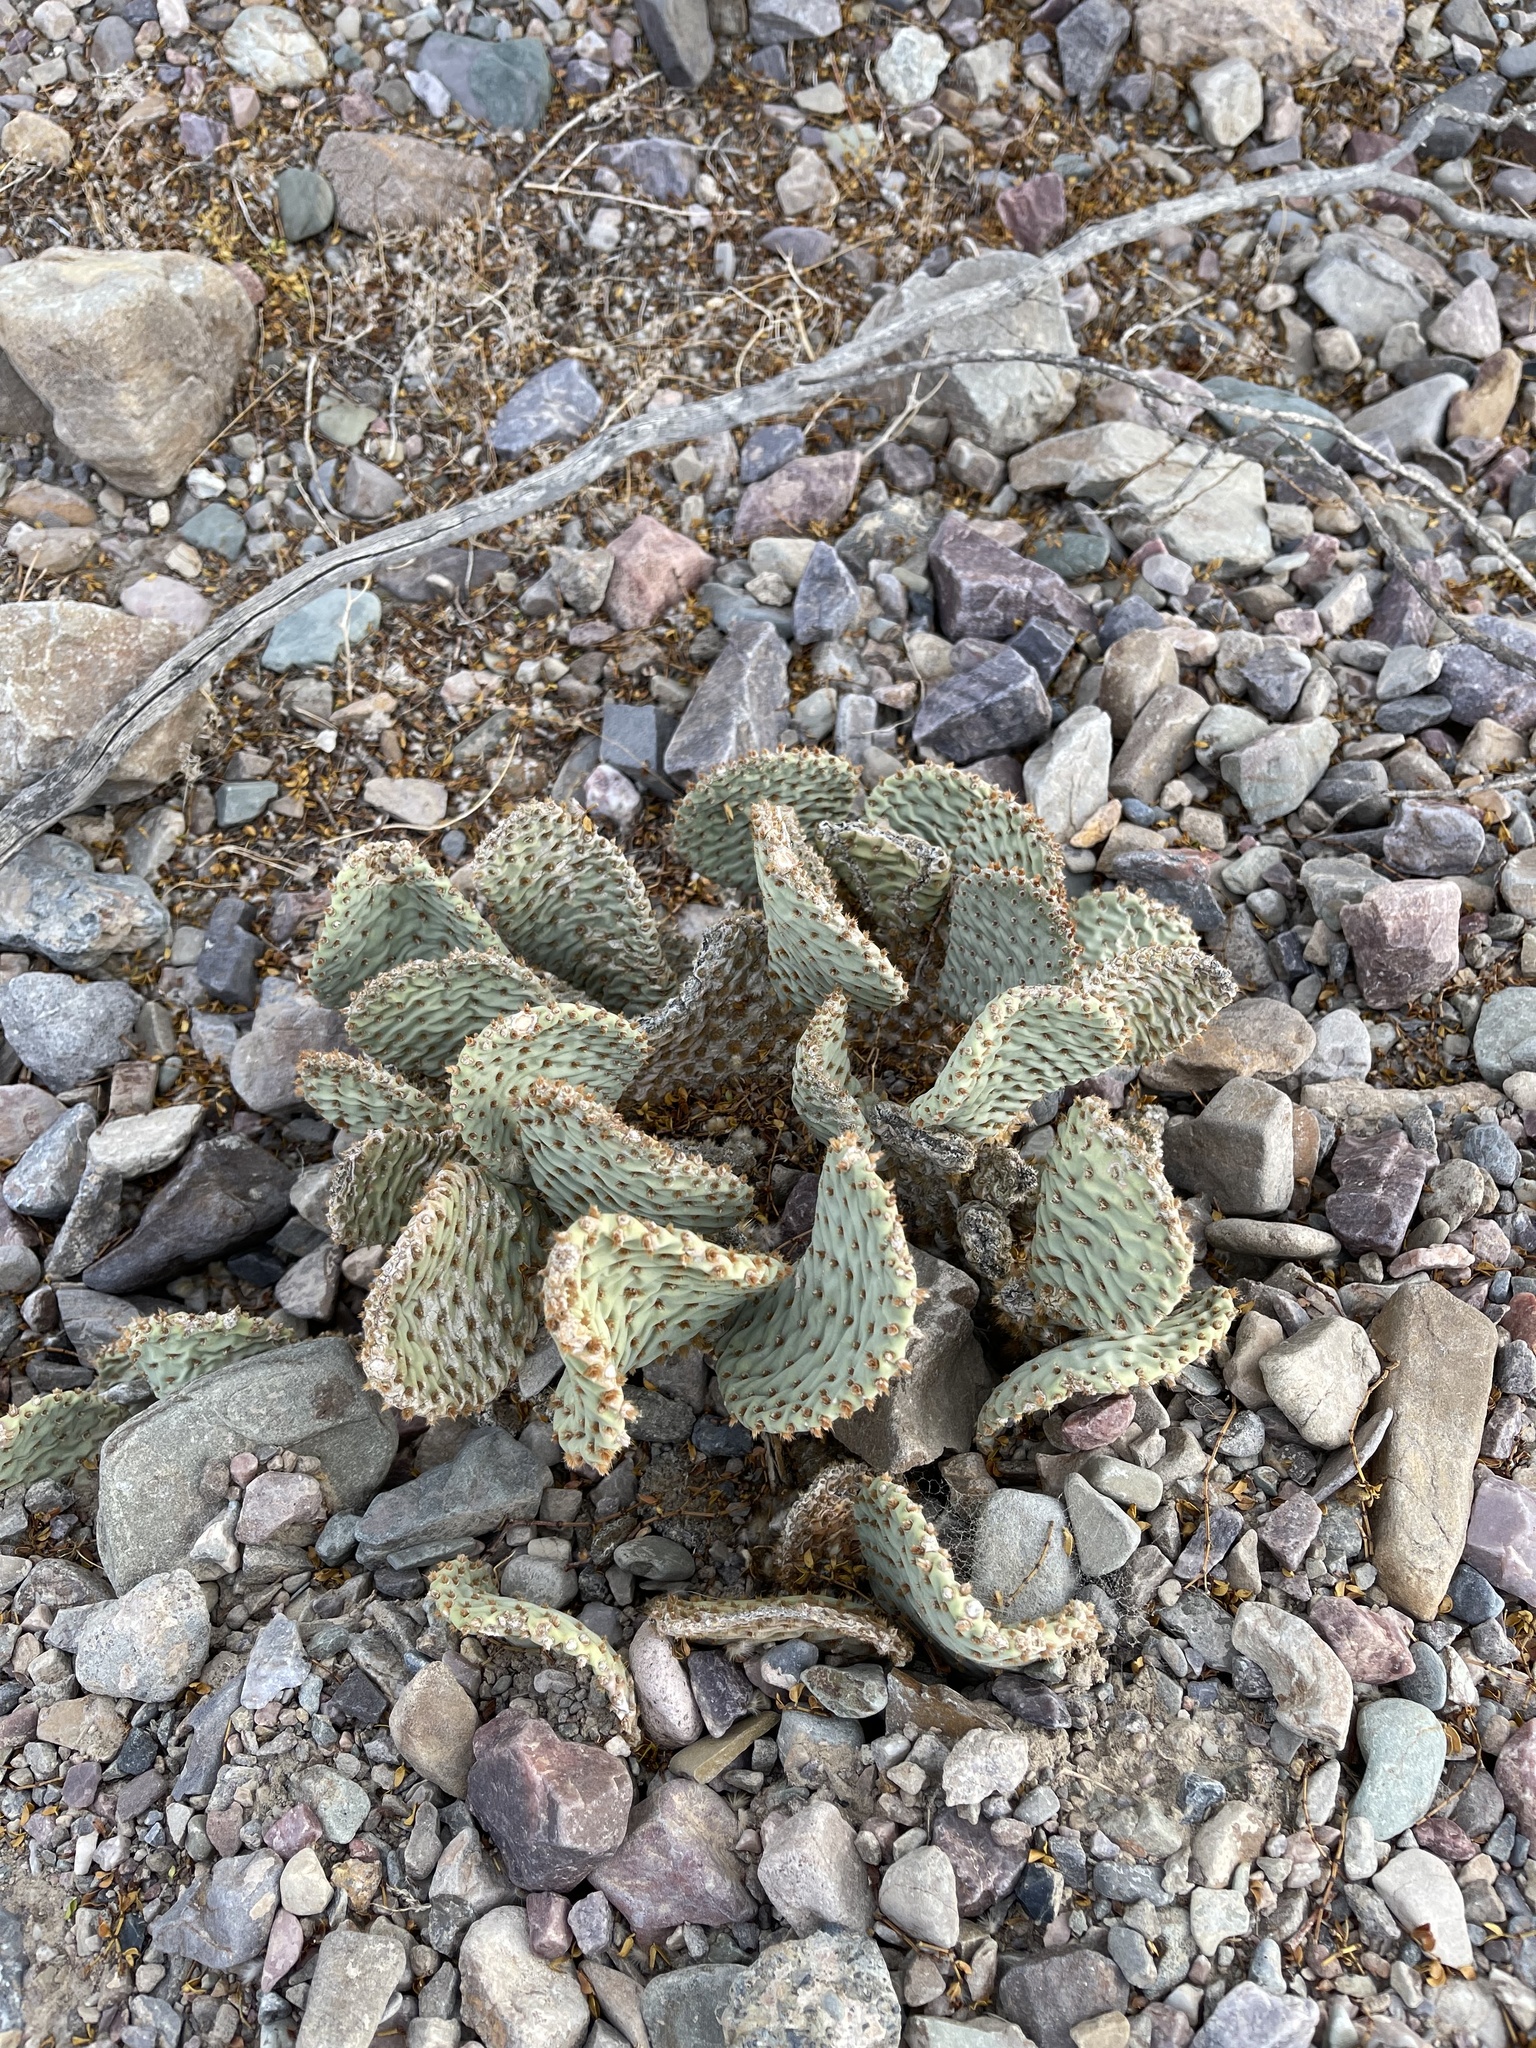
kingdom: Plantae
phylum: Tracheophyta
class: Magnoliopsida
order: Caryophyllales
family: Cactaceae
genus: Opuntia
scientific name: Opuntia basilaris
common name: Beavertail prickly-pear
